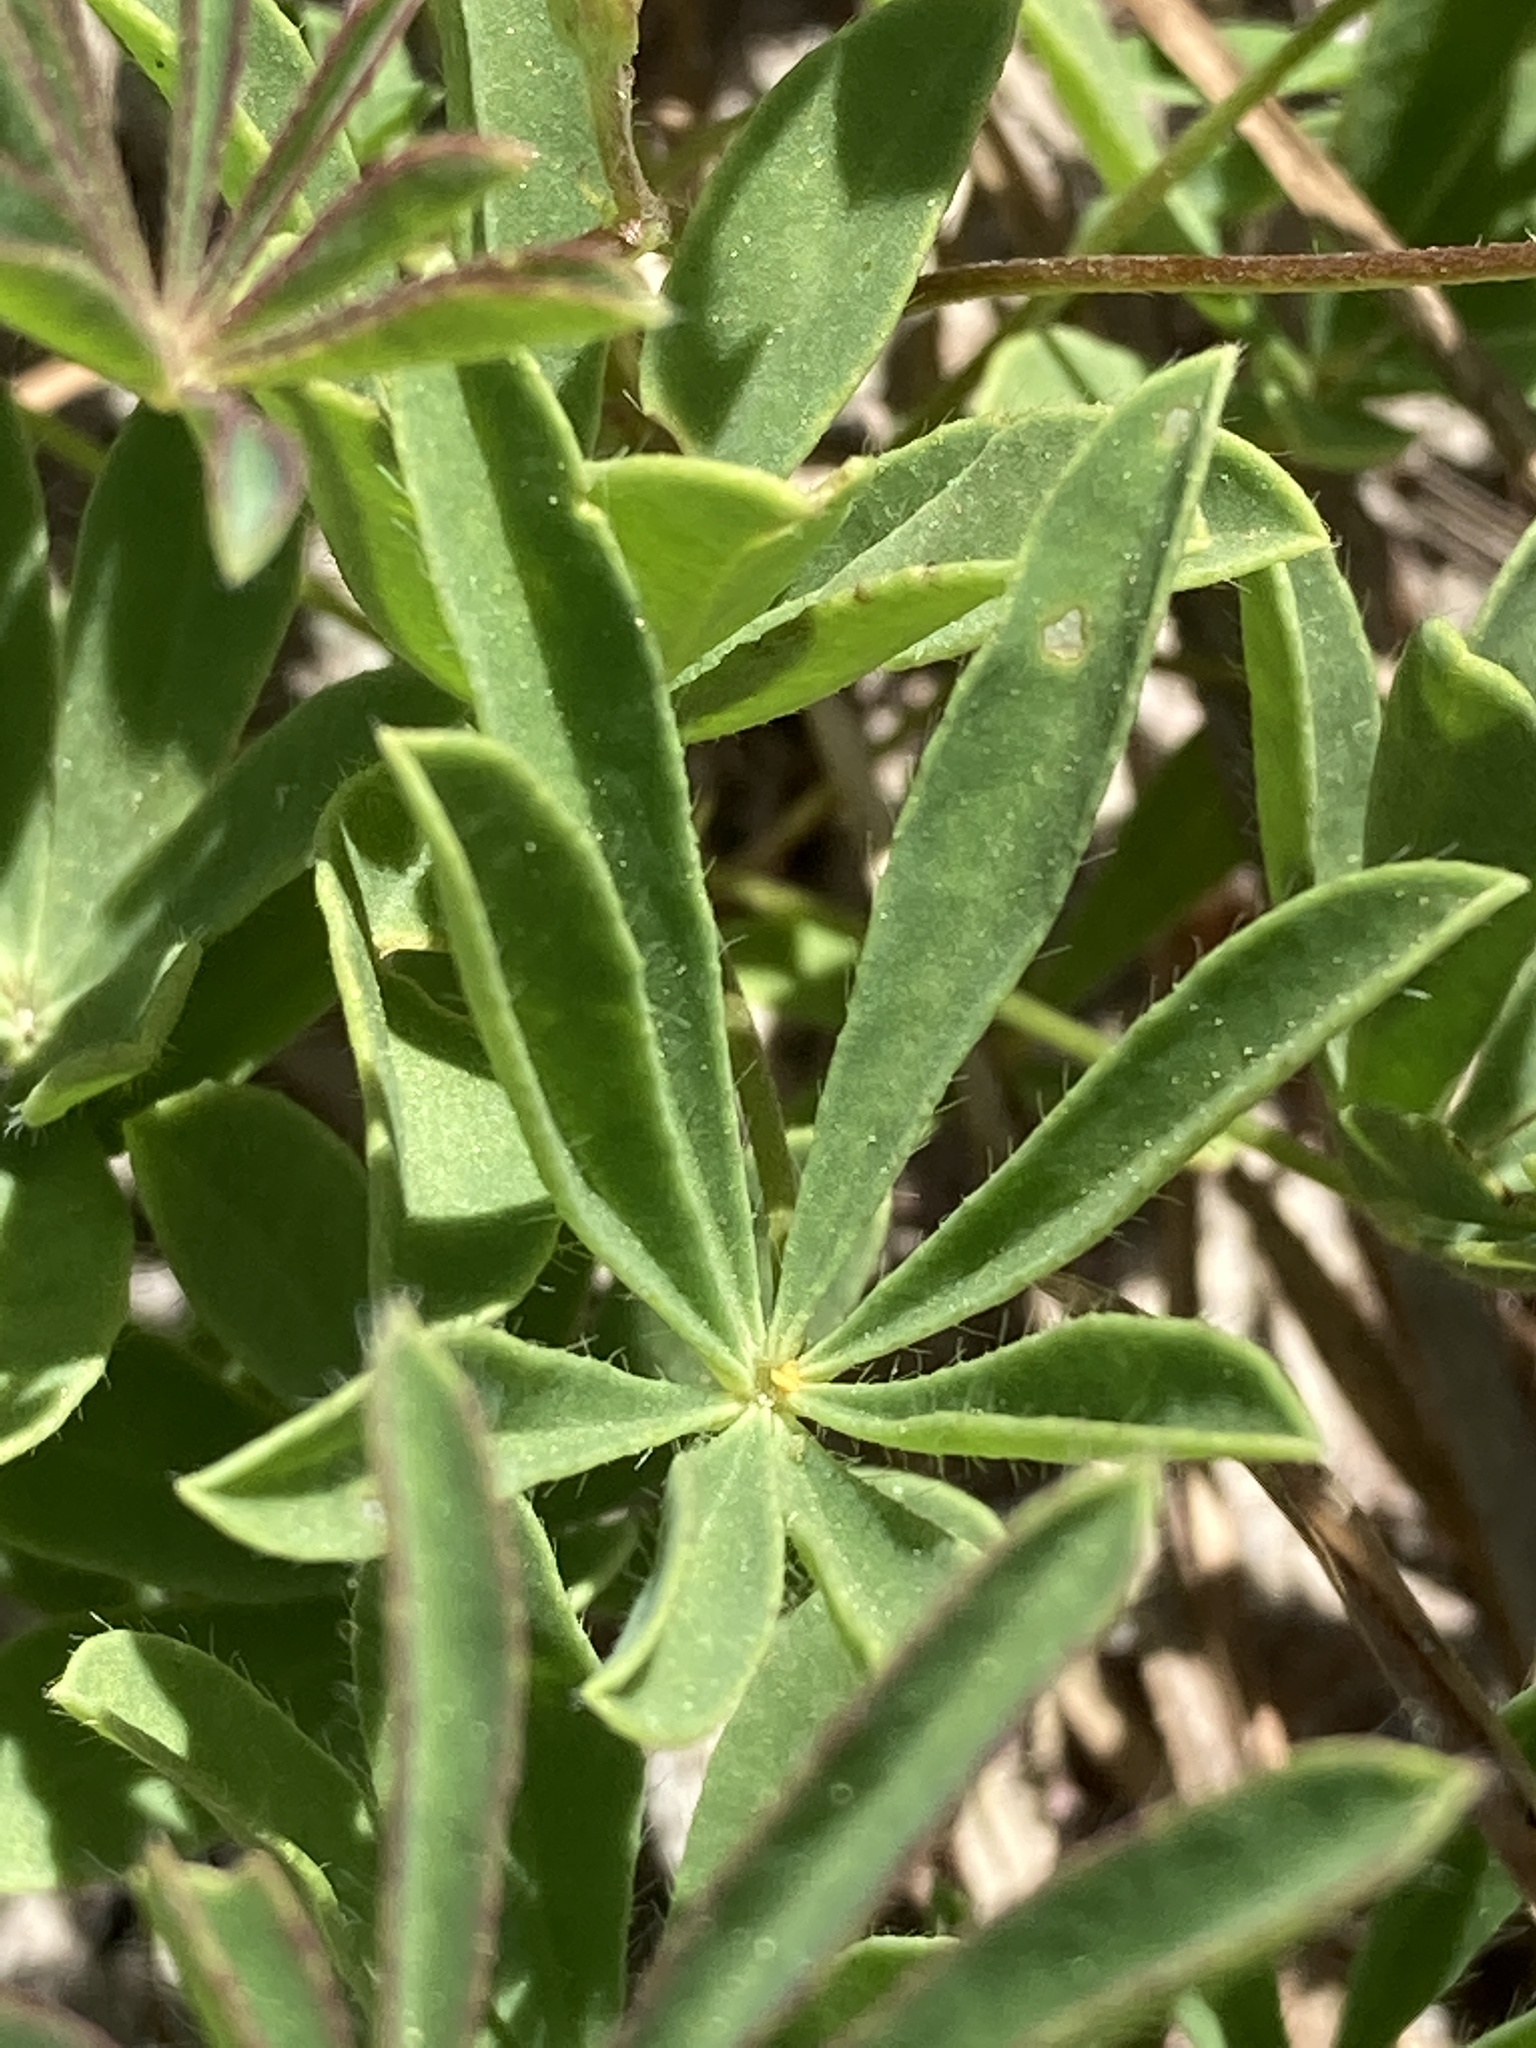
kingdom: Plantae
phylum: Tracheophyta
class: Magnoliopsida
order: Fabales
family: Fabaceae
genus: Lupinus
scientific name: Lupinus perennis
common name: Sundial lupine
